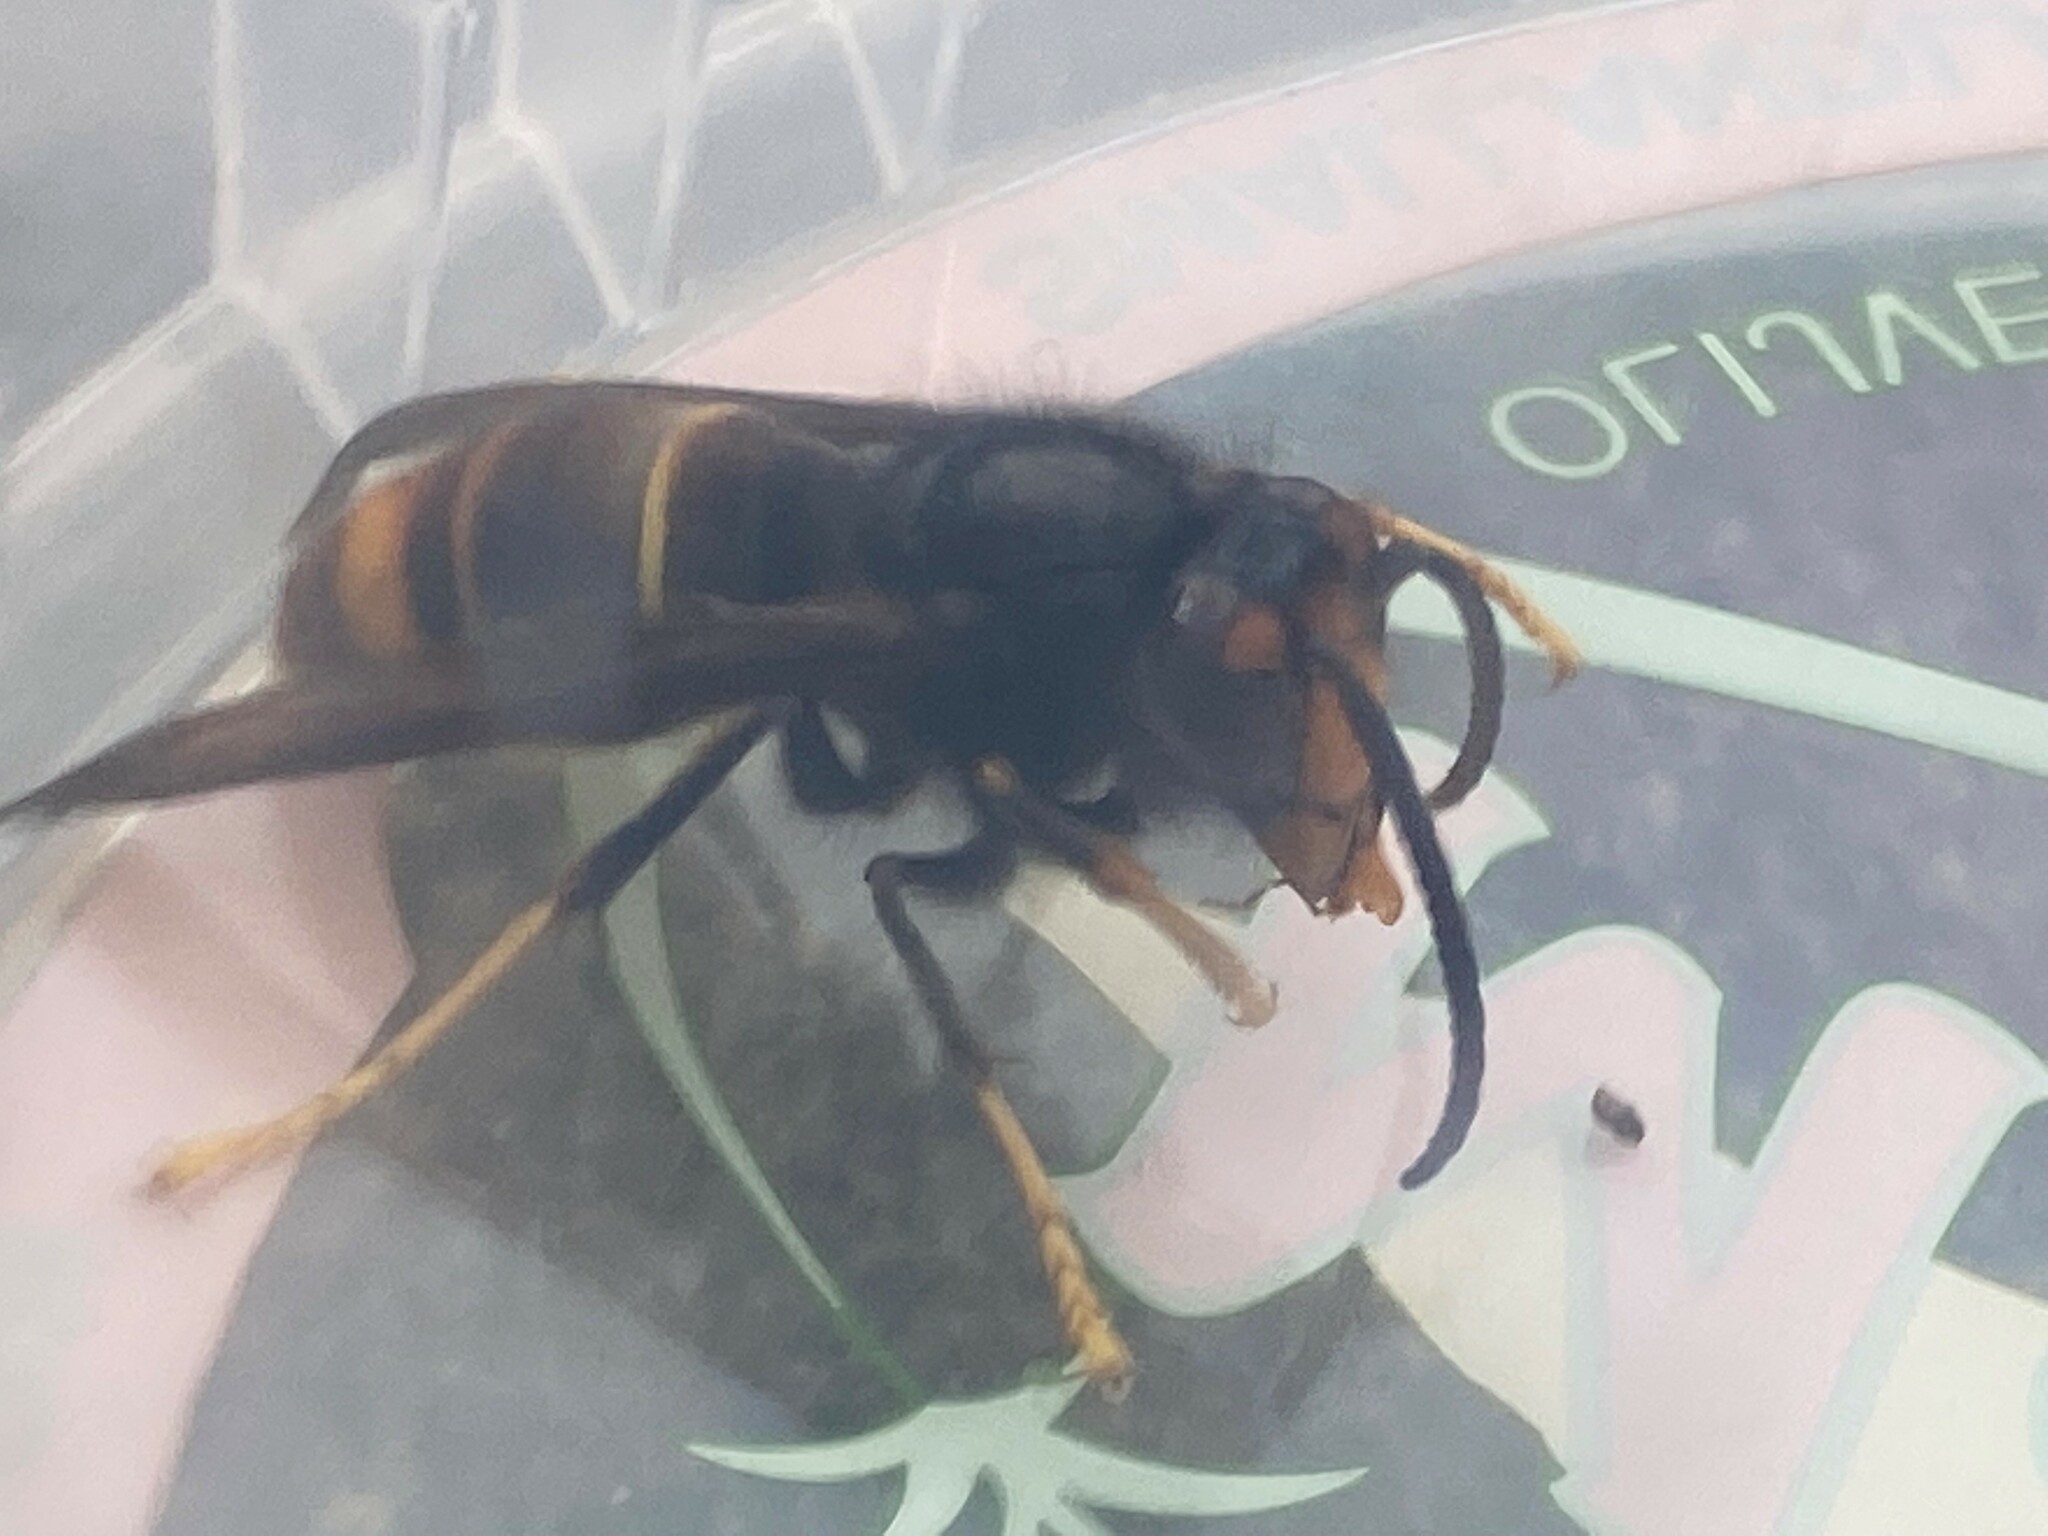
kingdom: Animalia
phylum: Arthropoda
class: Insecta
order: Hymenoptera
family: Vespidae
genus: Vespa
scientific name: Vespa velutina
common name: Asian hornet
